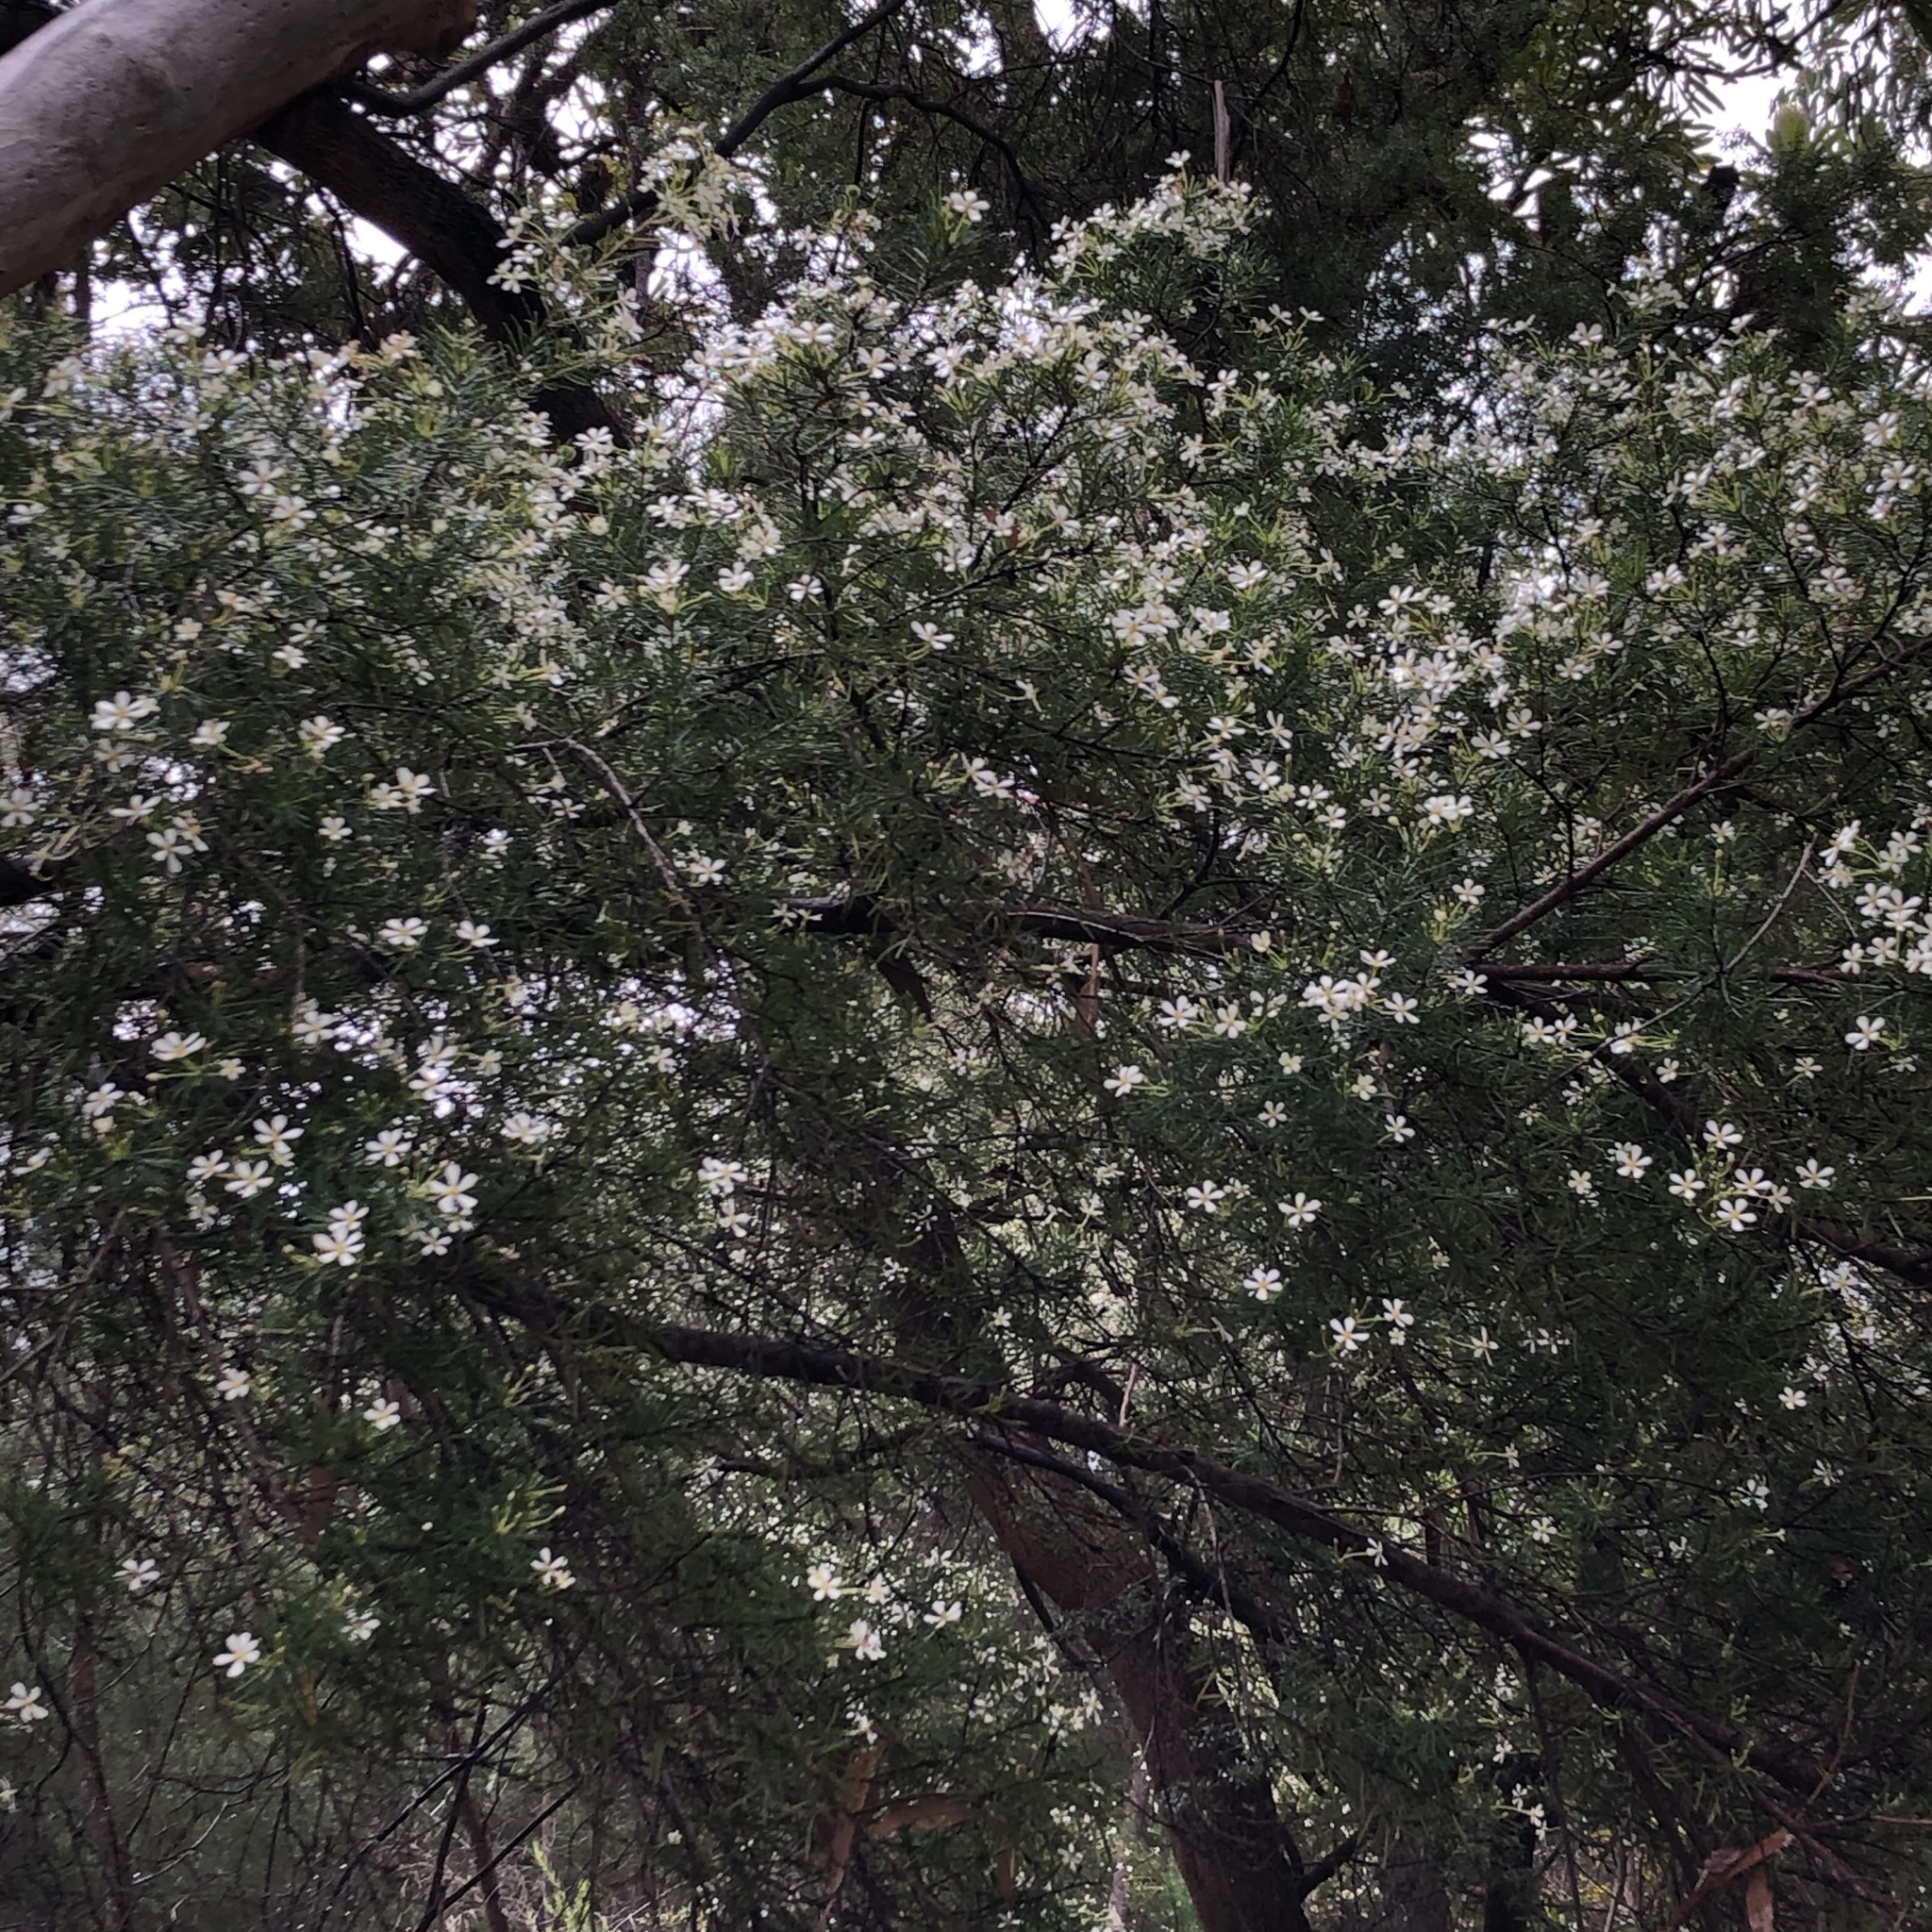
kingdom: Plantae
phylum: Tracheophyta
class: Magnoliopsida
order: Malpighiales
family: Euphorbiaceae
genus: Ricinocarpos
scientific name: Ricinocarpos pinifolius
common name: Weddingbush
